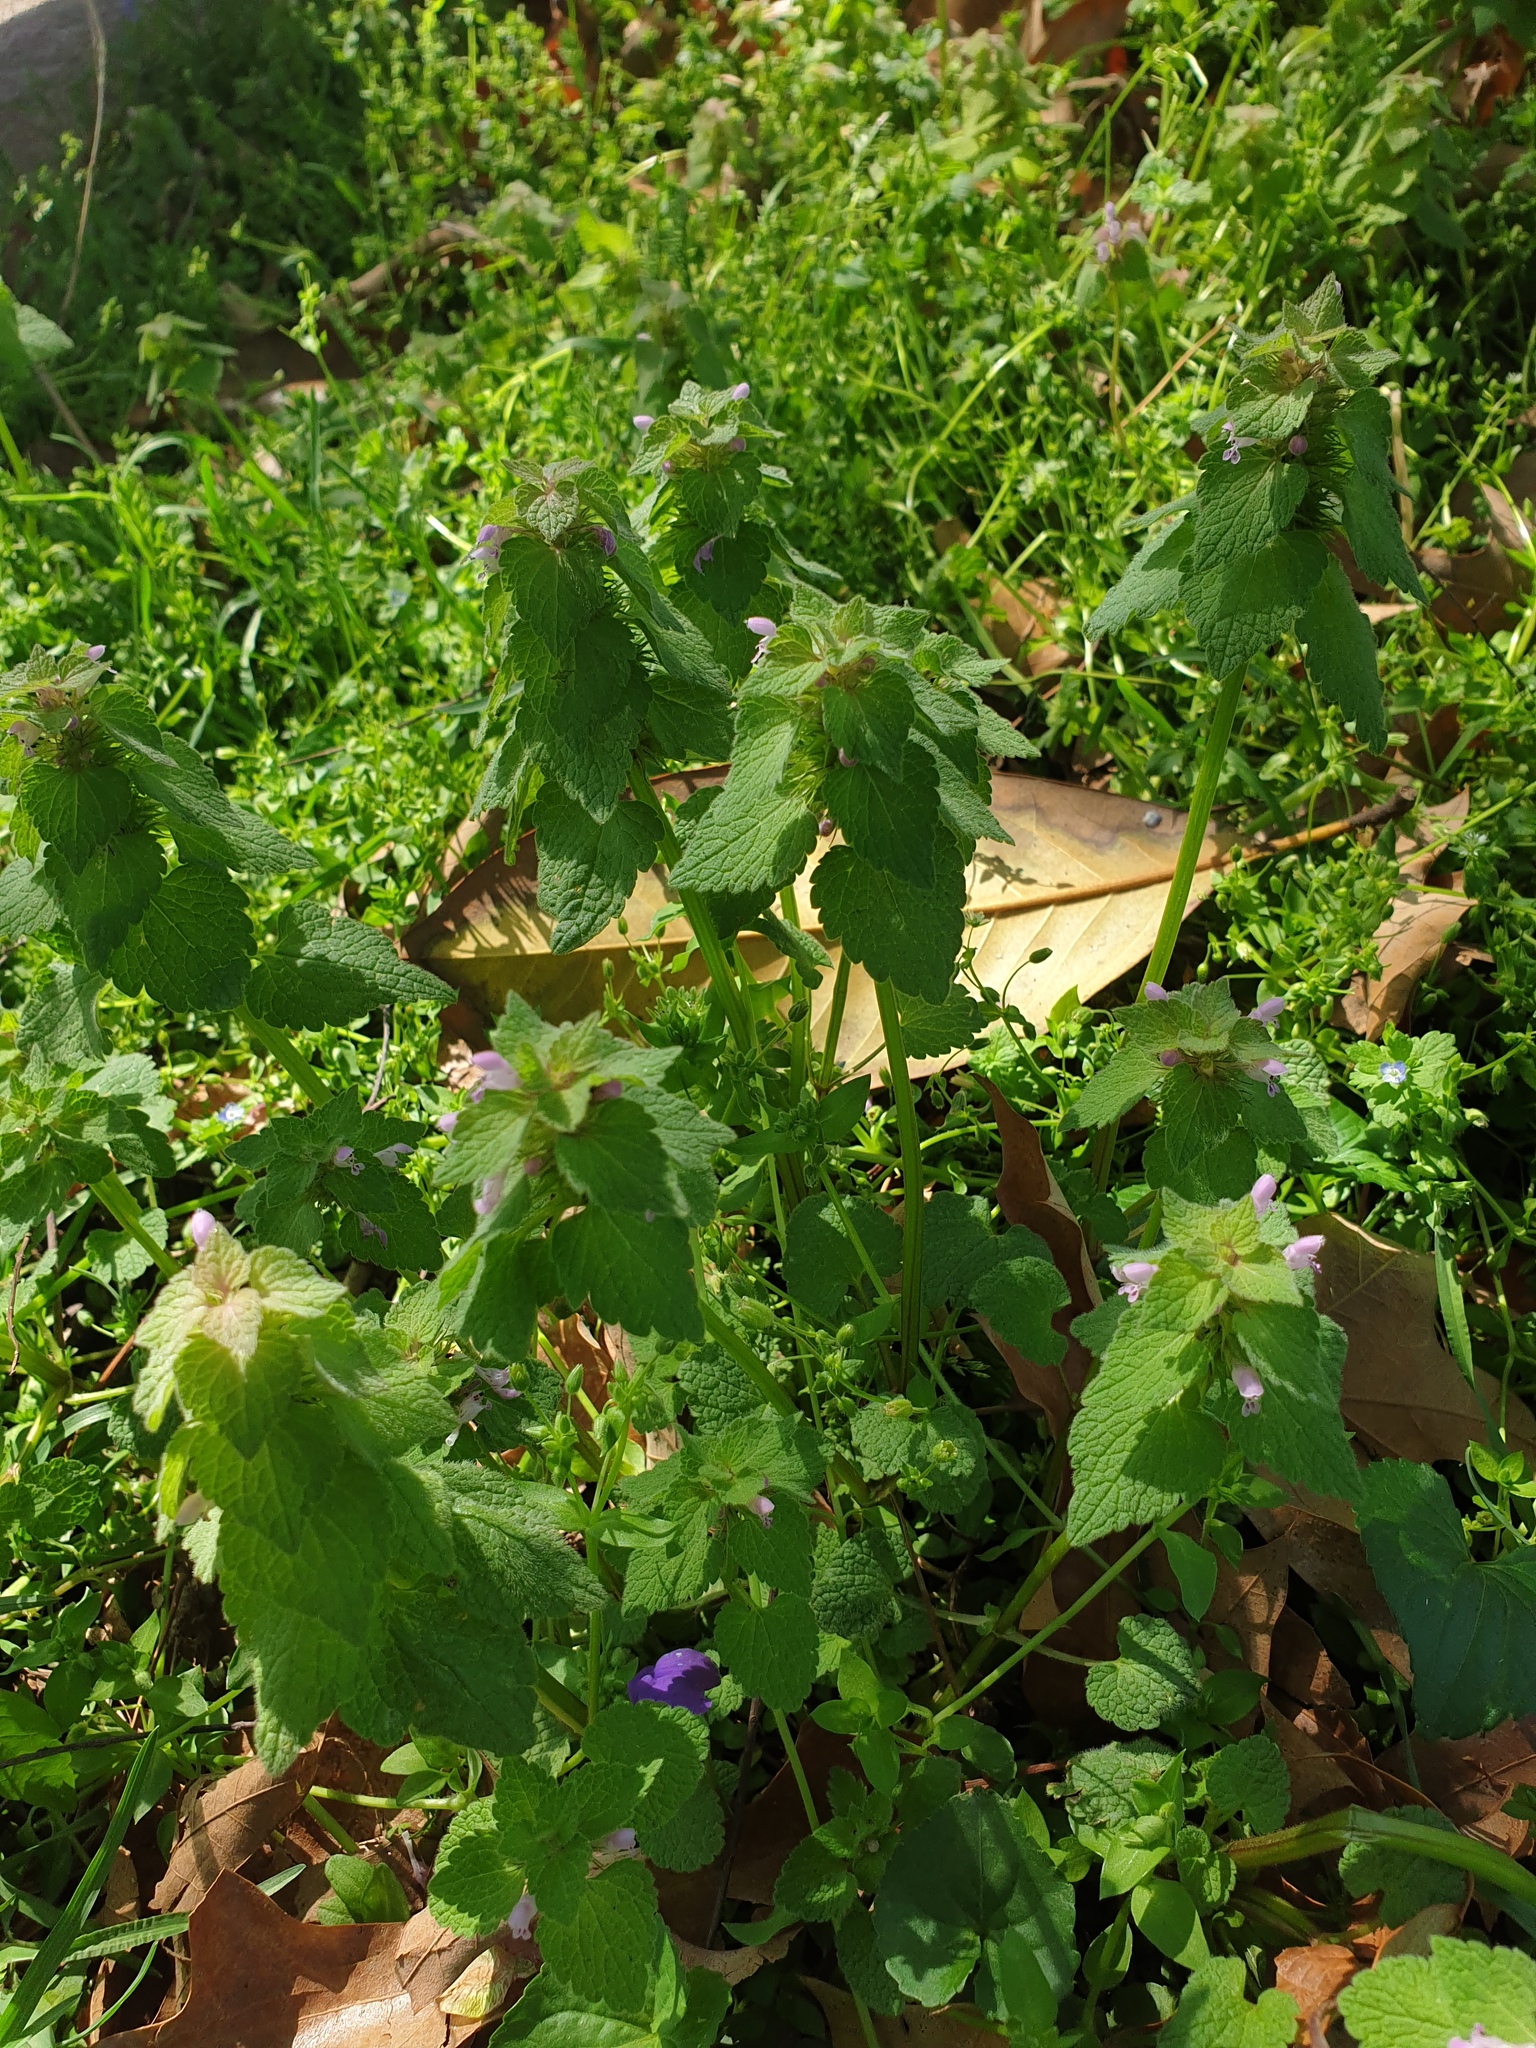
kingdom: Plantae
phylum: Tracheophyta
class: Magnoliopsida
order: Lamiales
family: Lamiaceae
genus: Lamium
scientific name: Lamium purpureum
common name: Red dead-nettle
